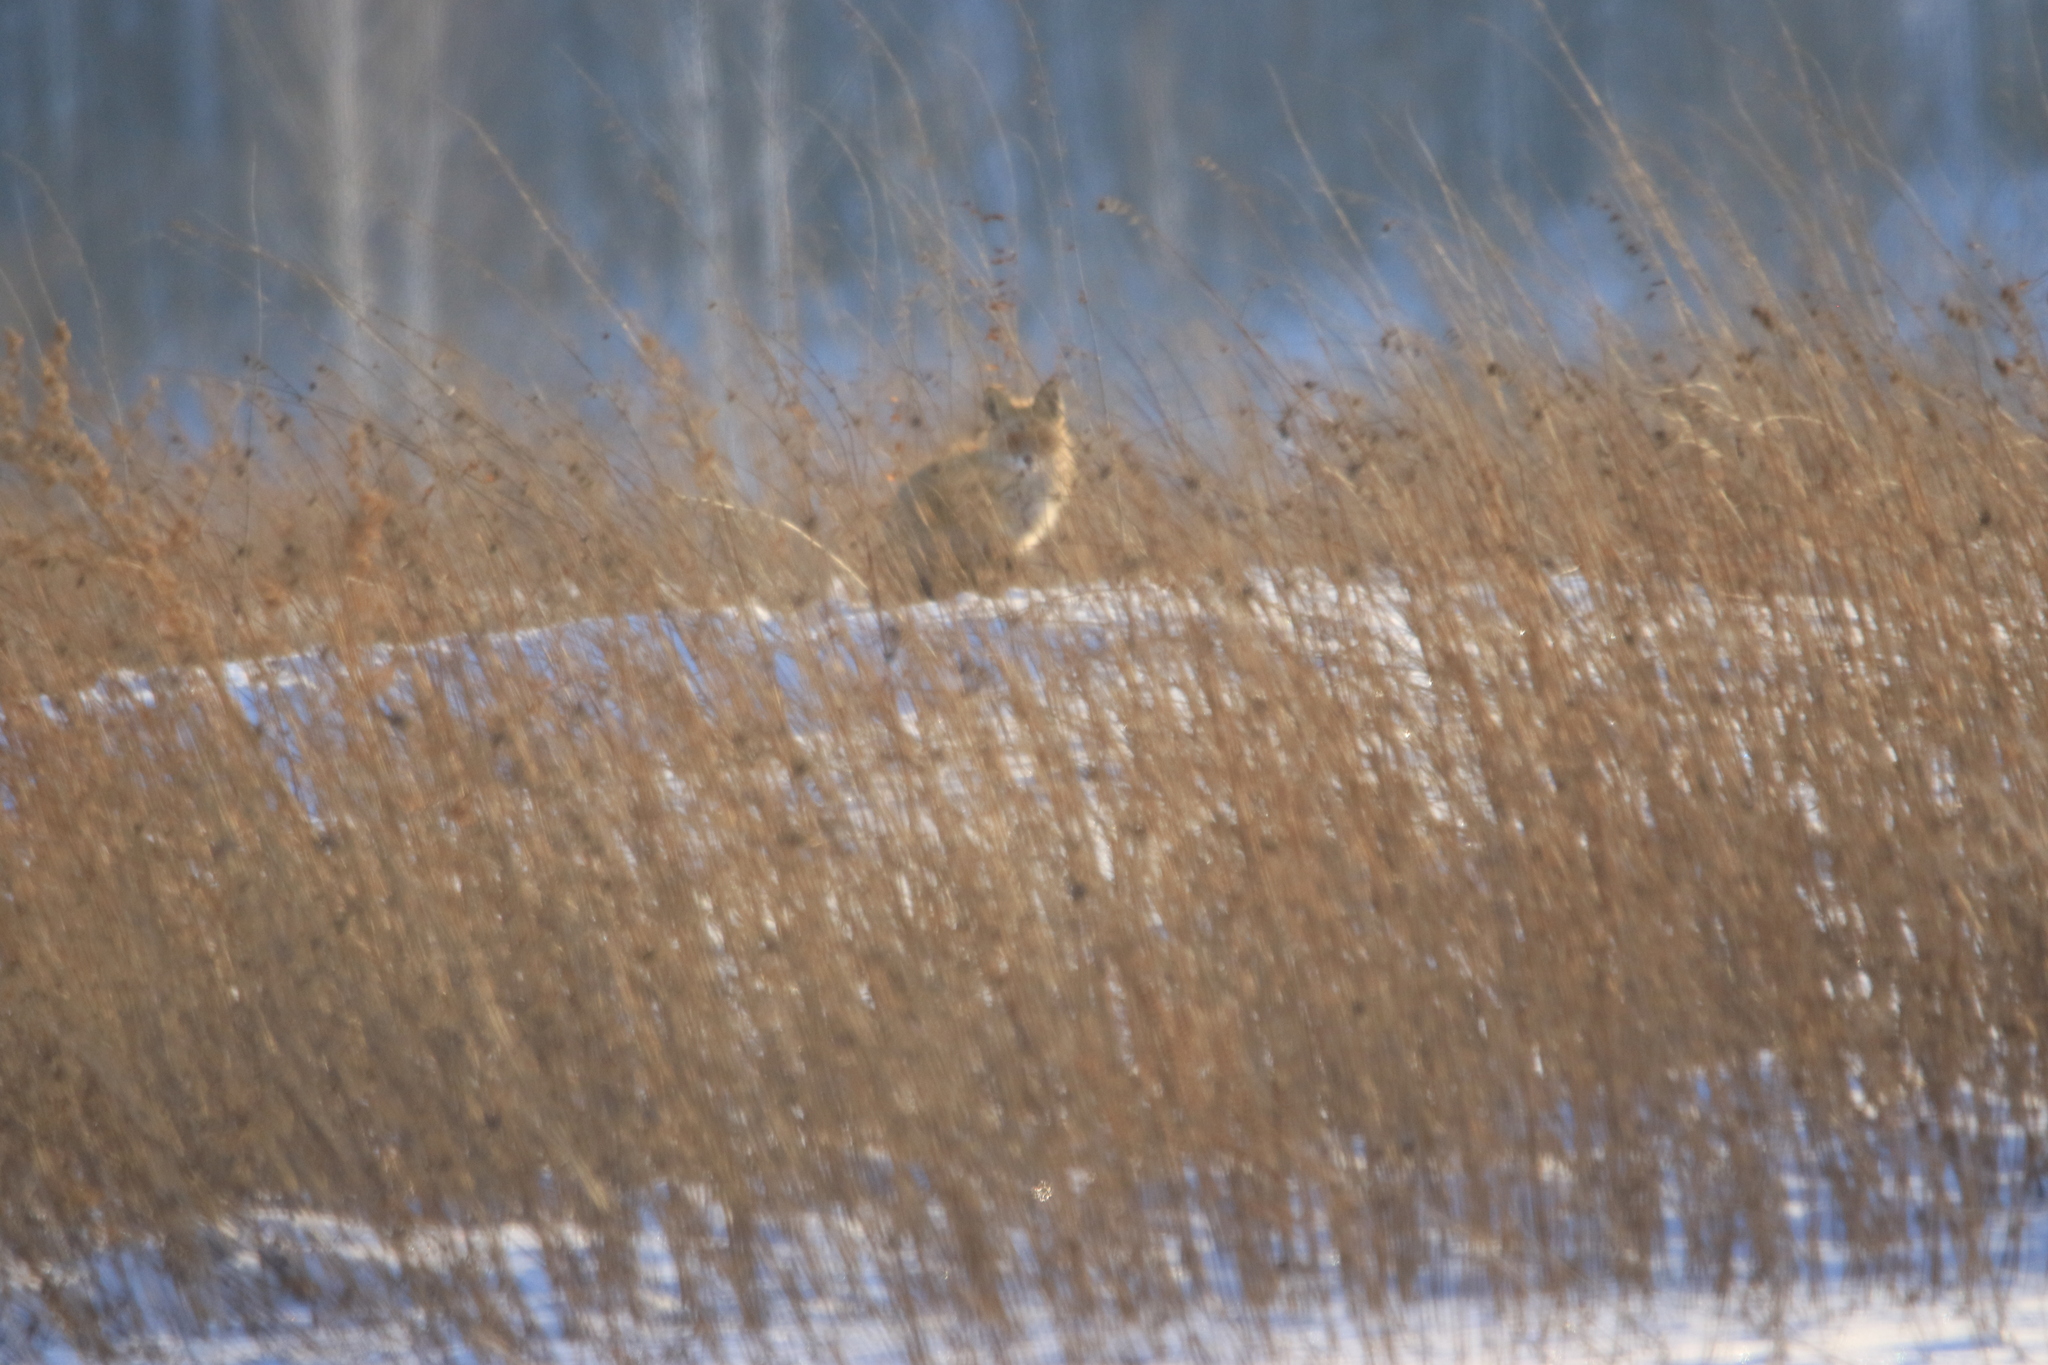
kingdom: Animalia
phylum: Chordata
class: Mammalia
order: Carnivora
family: Canidae
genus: Vulpes
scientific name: Vulpes vulpes
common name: Red fox
